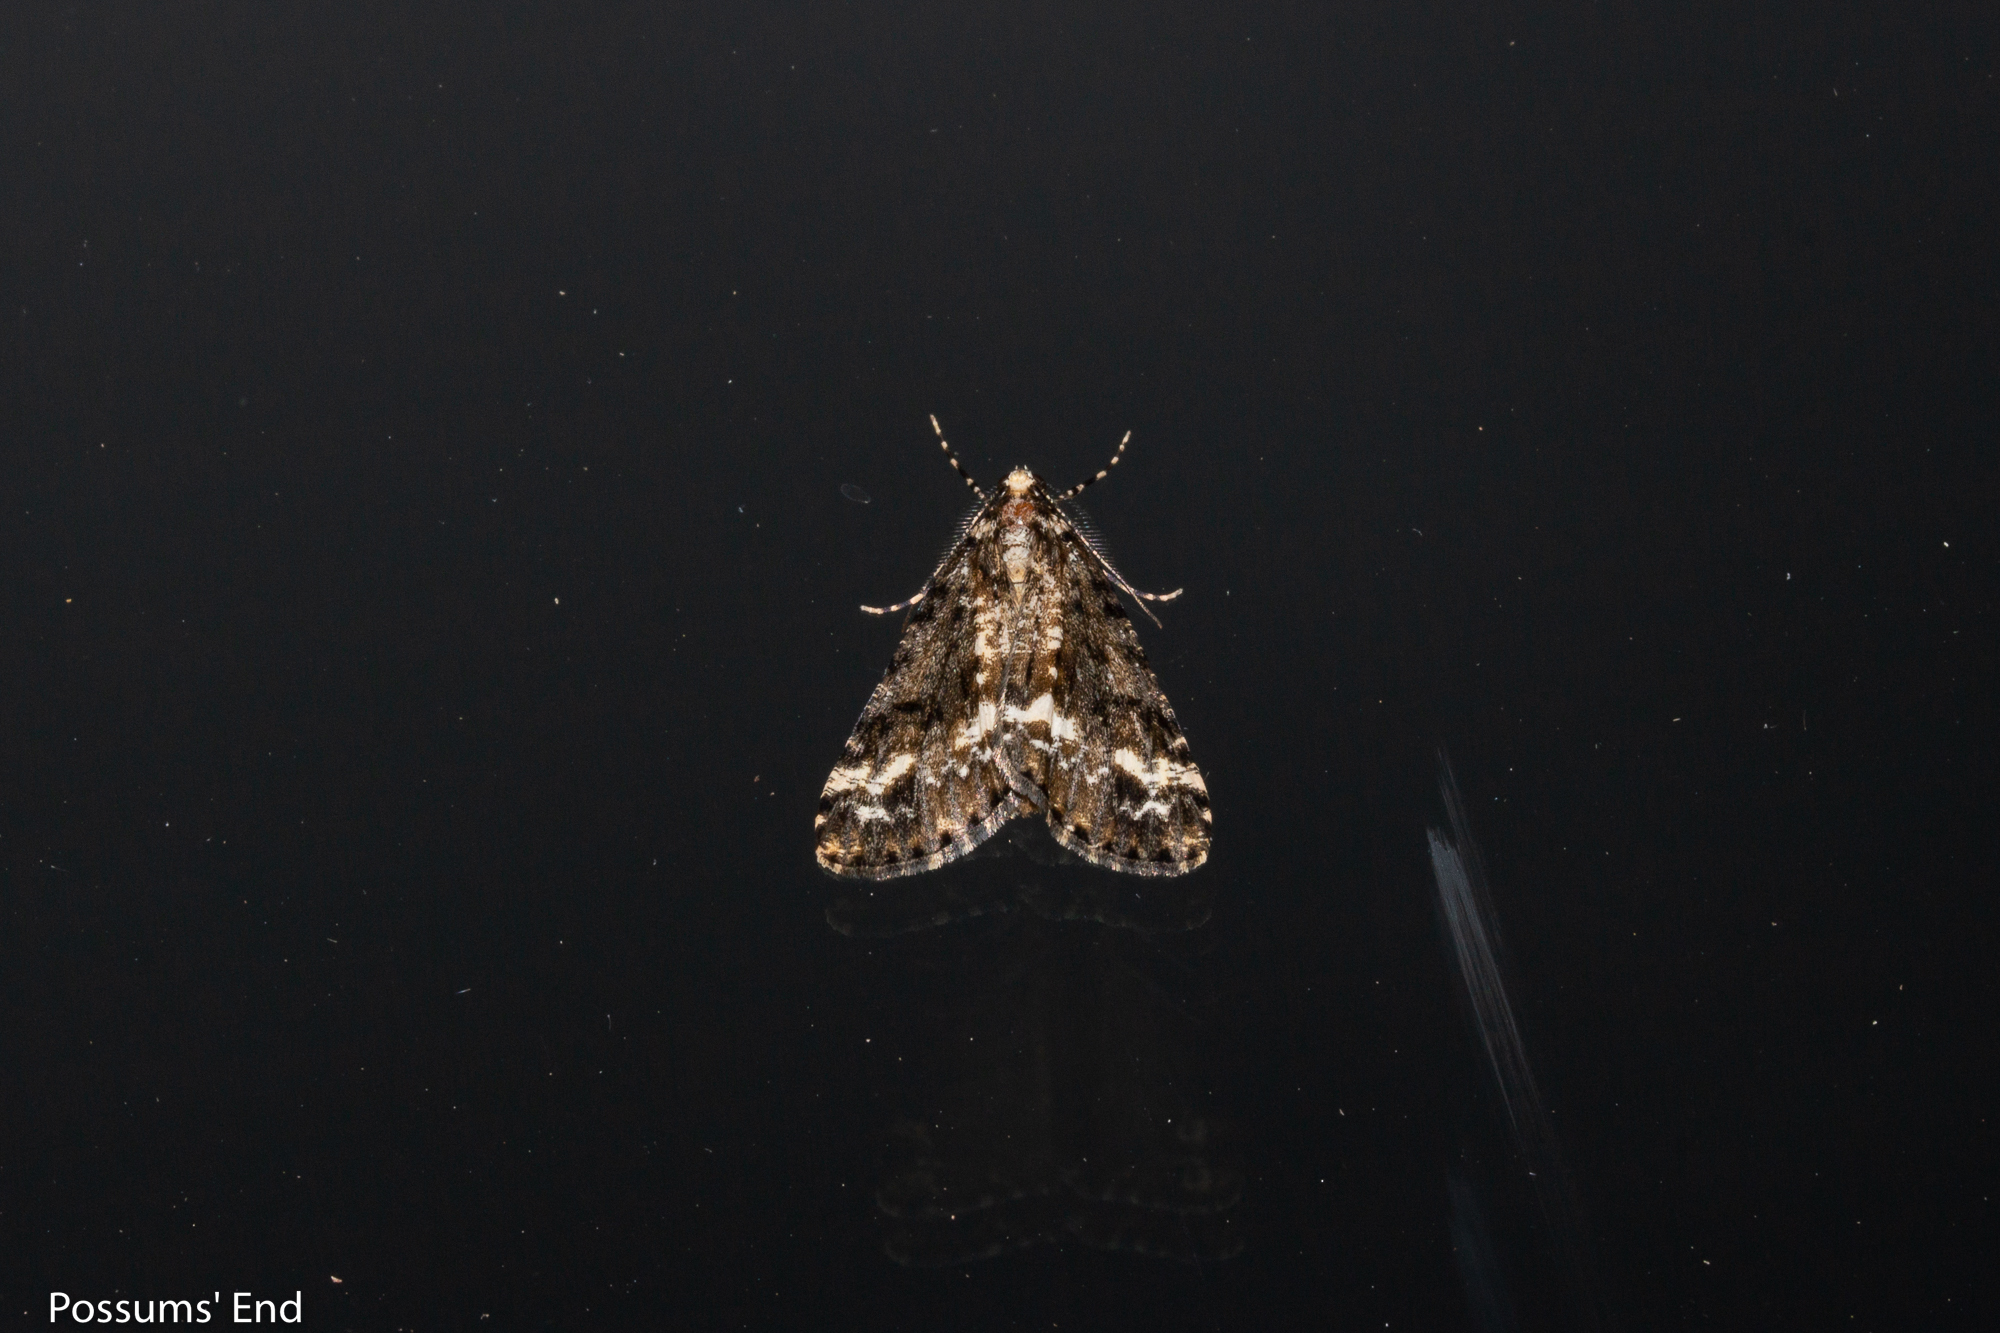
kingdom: Animalia
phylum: Arthropoda
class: Insecta
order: Lepidoptera
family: Geometridae
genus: Pseudocoremia
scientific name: Pseudocoremia leucelaea
